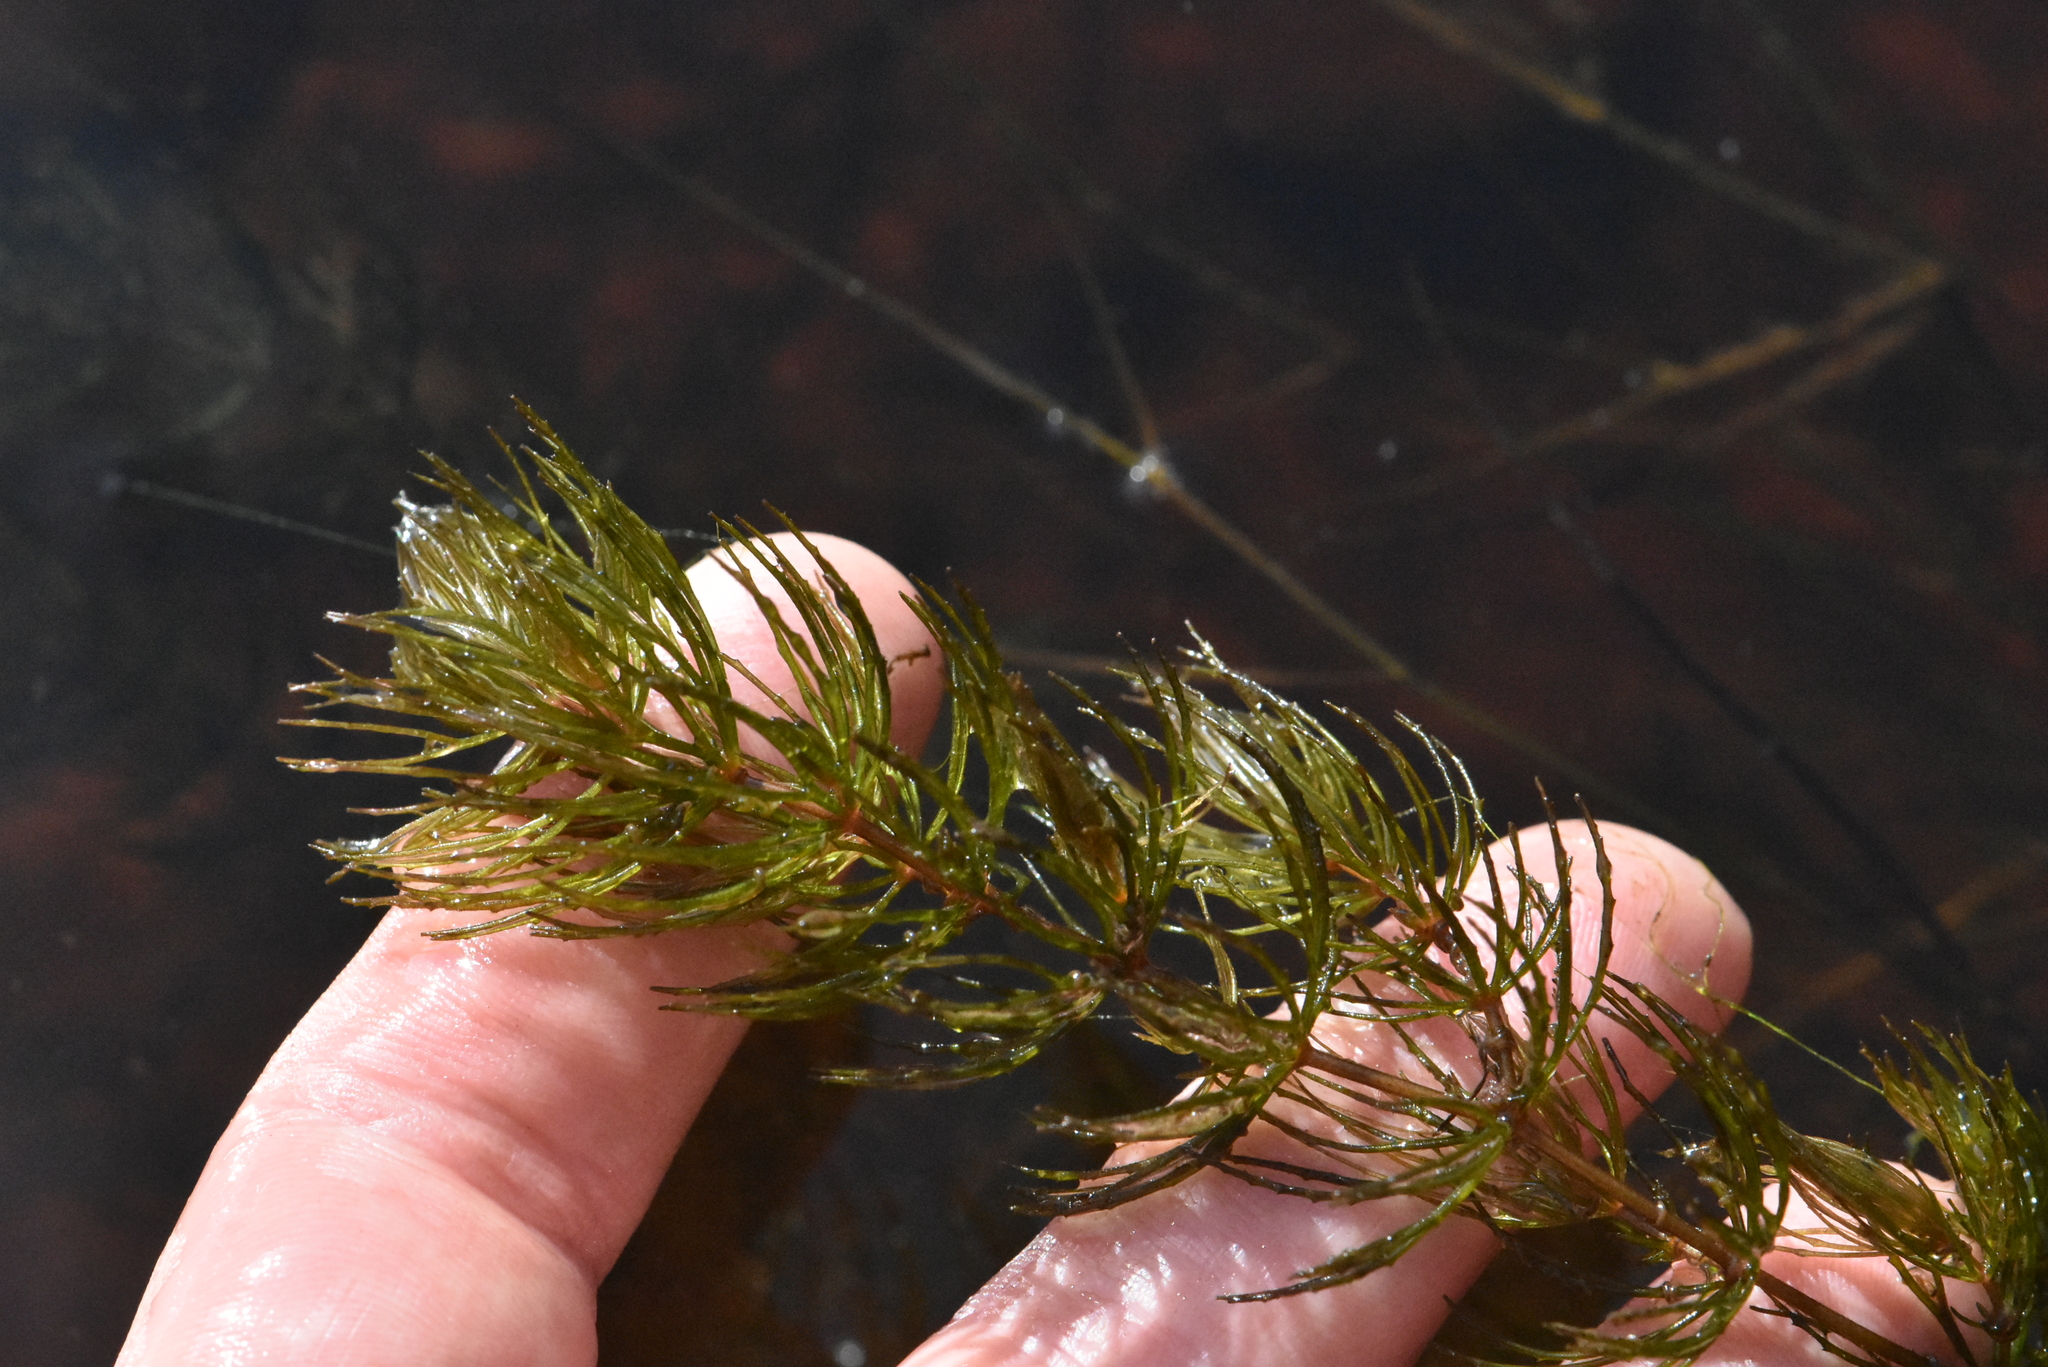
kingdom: Plantae
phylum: Tracheophyta
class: Magnoliopsida
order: Ceratophyllales
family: Ceratophyllaceae
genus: Ceratophyllum
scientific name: Ceratophyllum demersum
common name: Rigid hornwort
